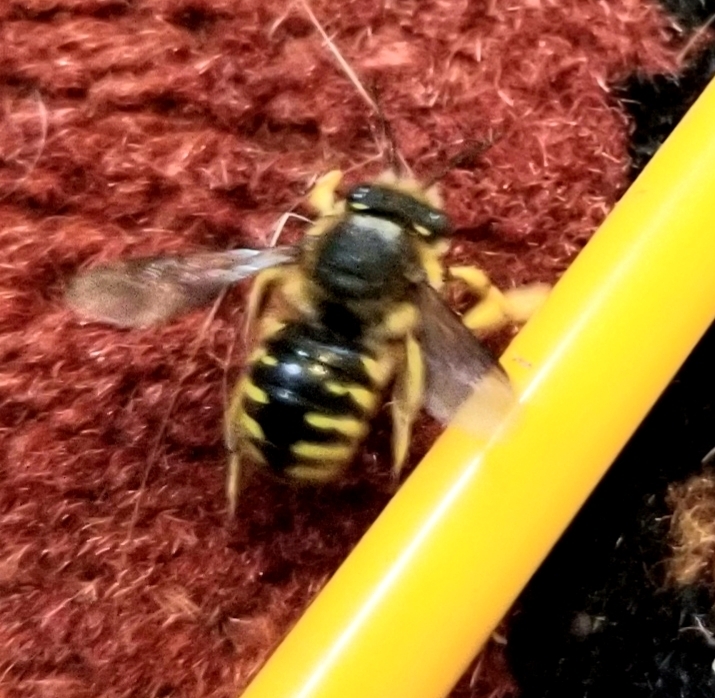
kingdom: Animalia
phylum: Arthropoda
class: Insecta
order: Hymenoptera
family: Megachilidae
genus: Anthidium
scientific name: Anthidium manicatum
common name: Wool carder bee
